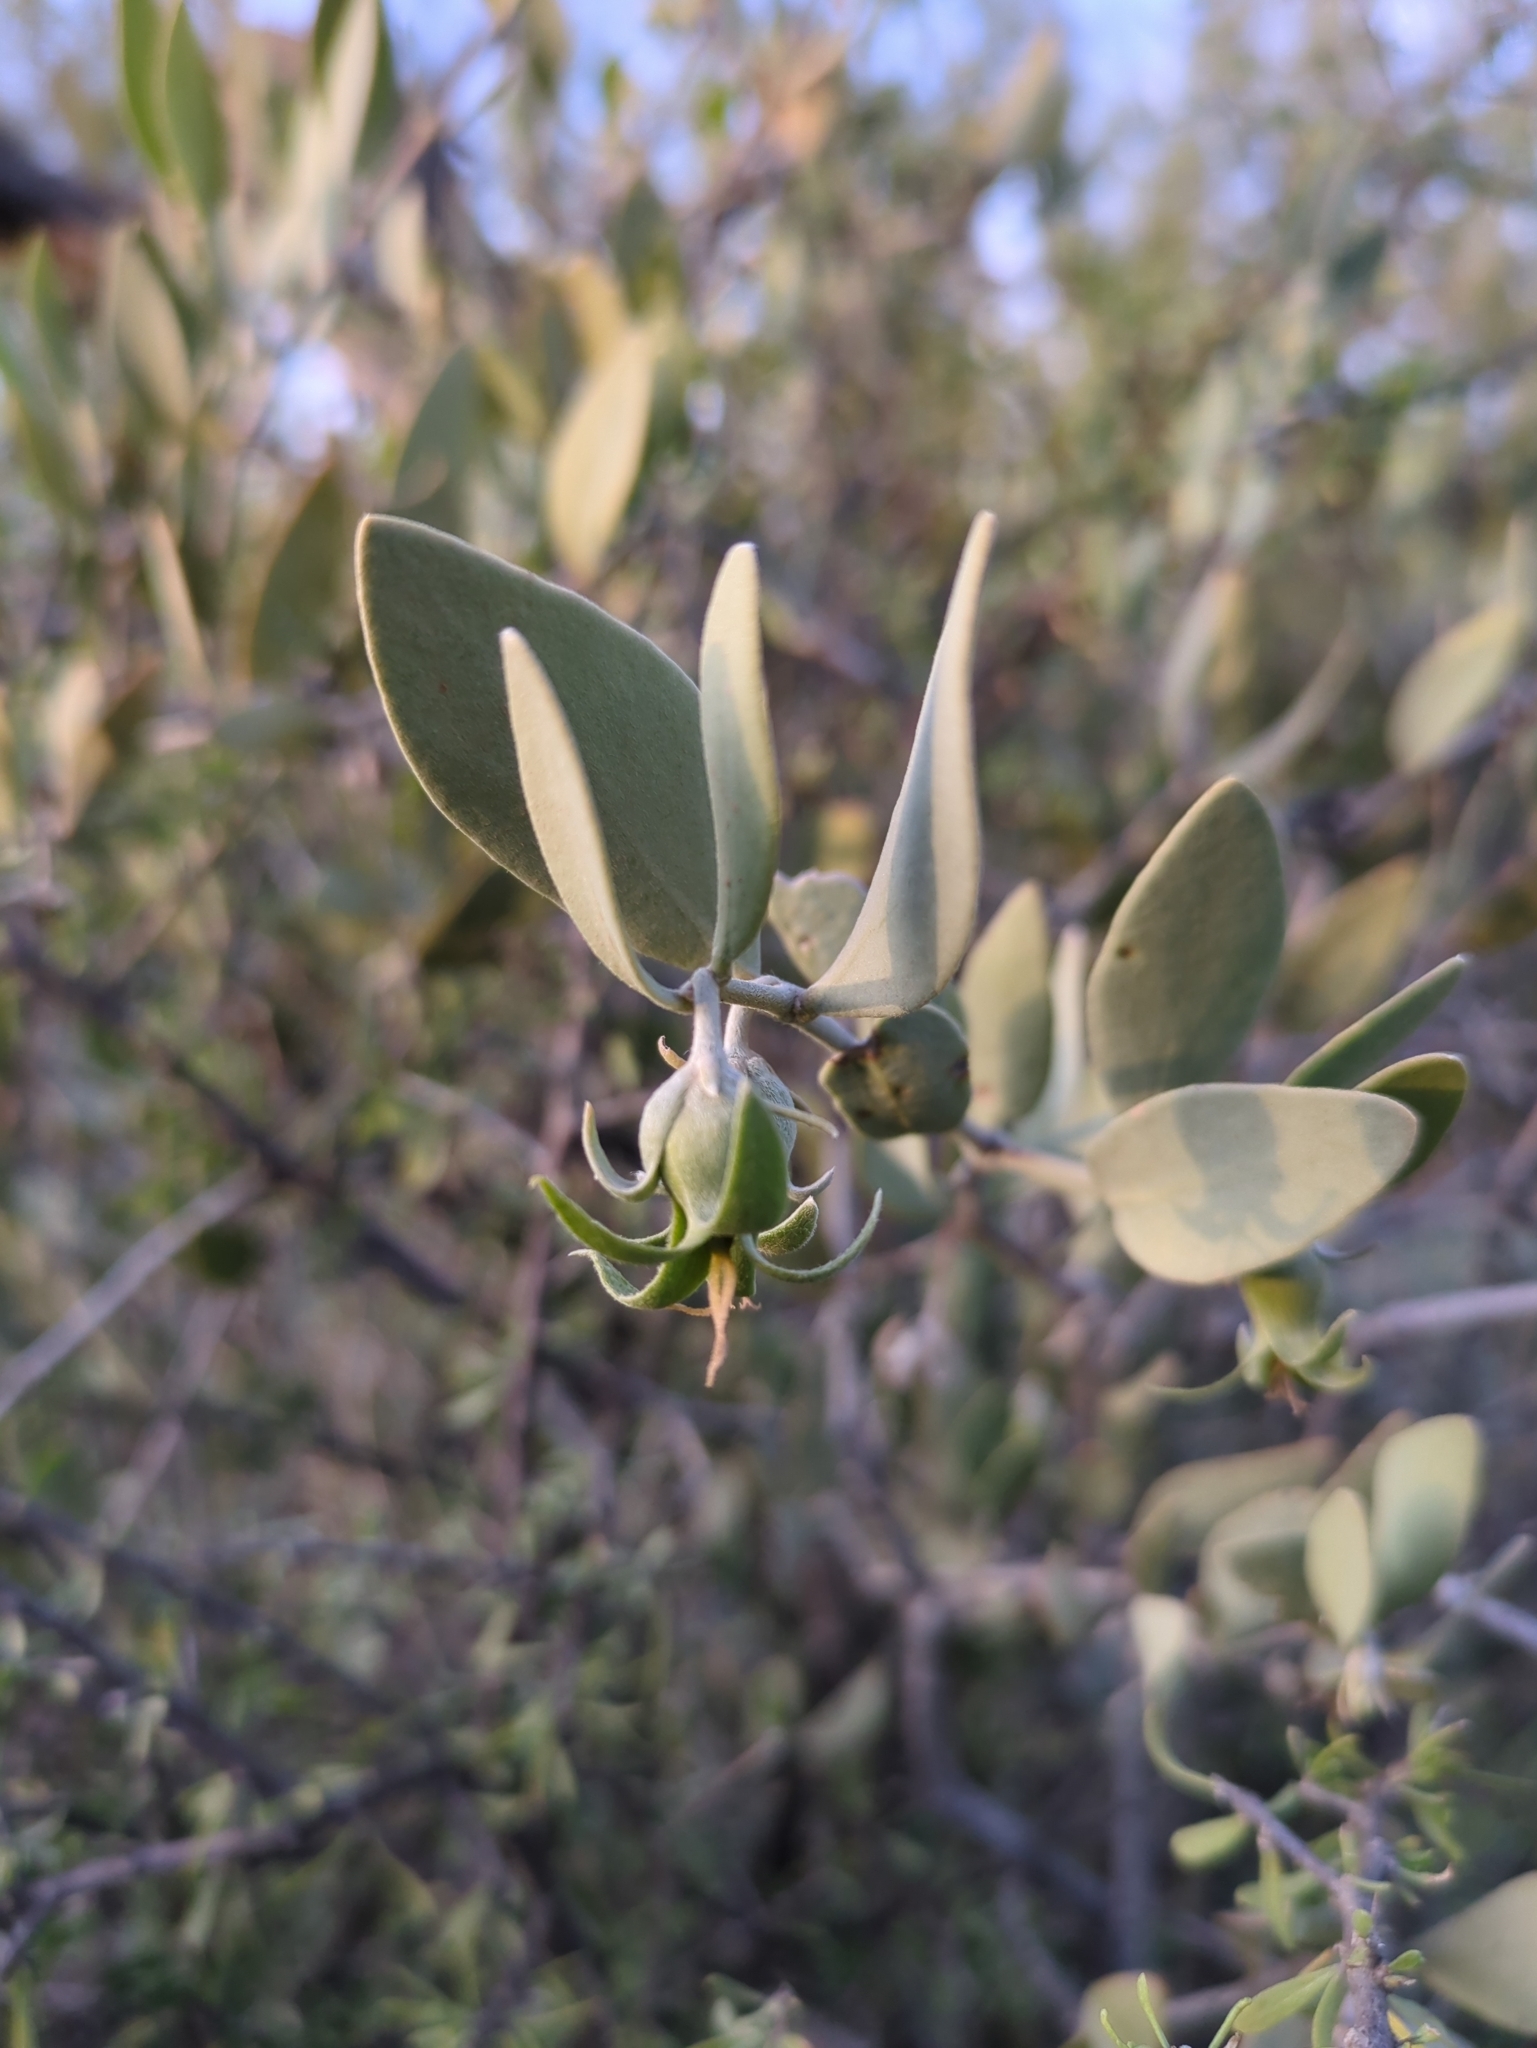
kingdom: Plantae
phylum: Tracheophyta
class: Magnoliopsida
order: Caryophyllales
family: Simmondsiaceae
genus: Simmondsia
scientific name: Simmondsia chinensis
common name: Jojoba
